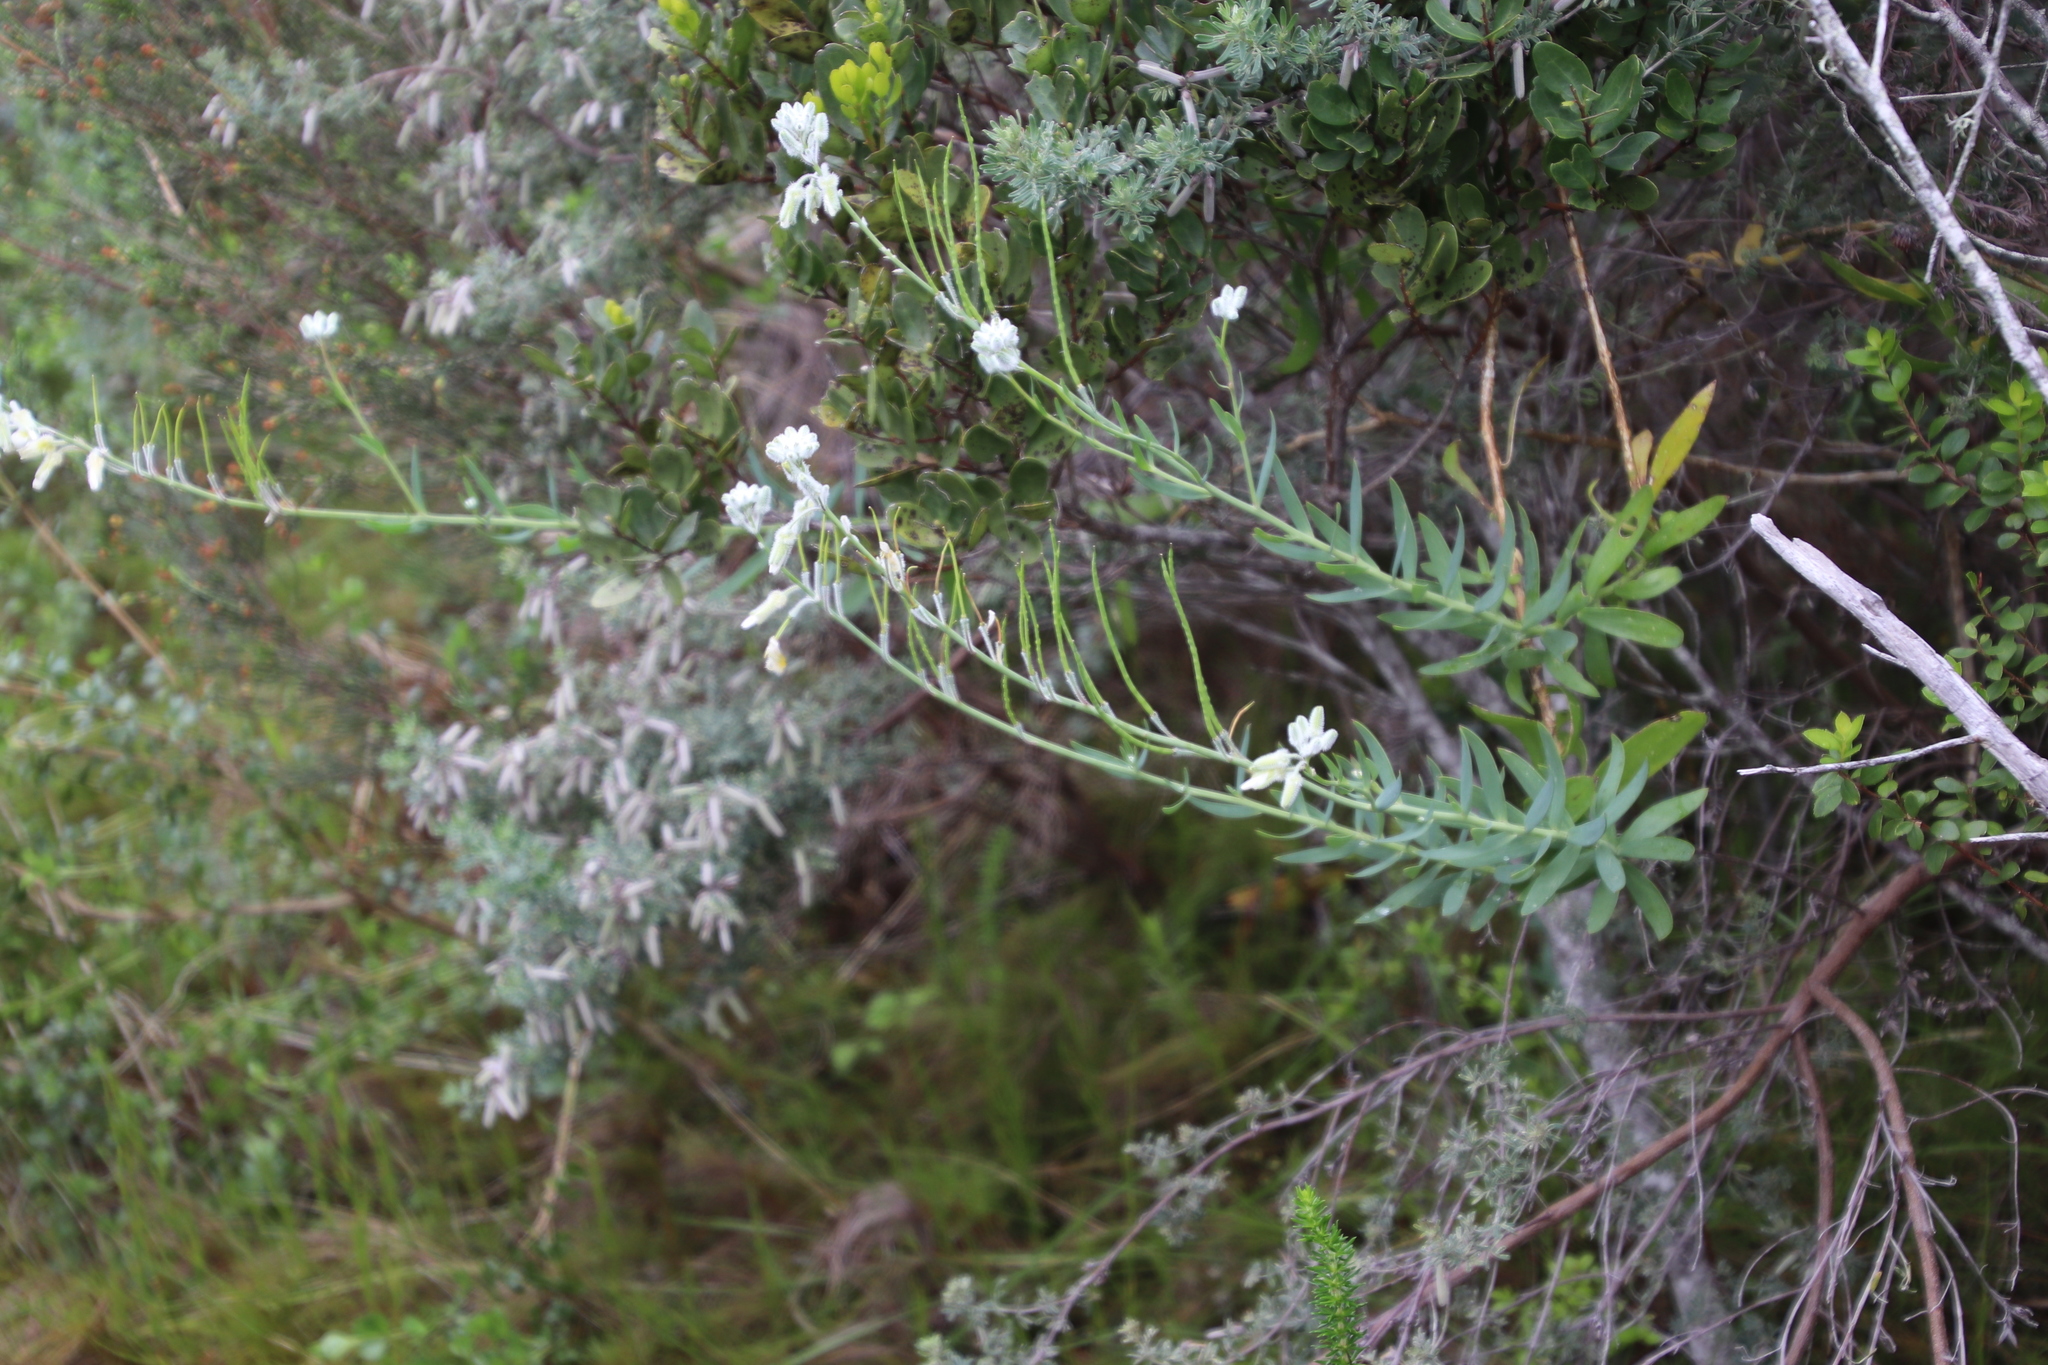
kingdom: Plantae
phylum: Tracheophyta
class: Magnoliopsida
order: Brassicales
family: Brassicaceae
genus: Heliophila
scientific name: Heliophila linearis
